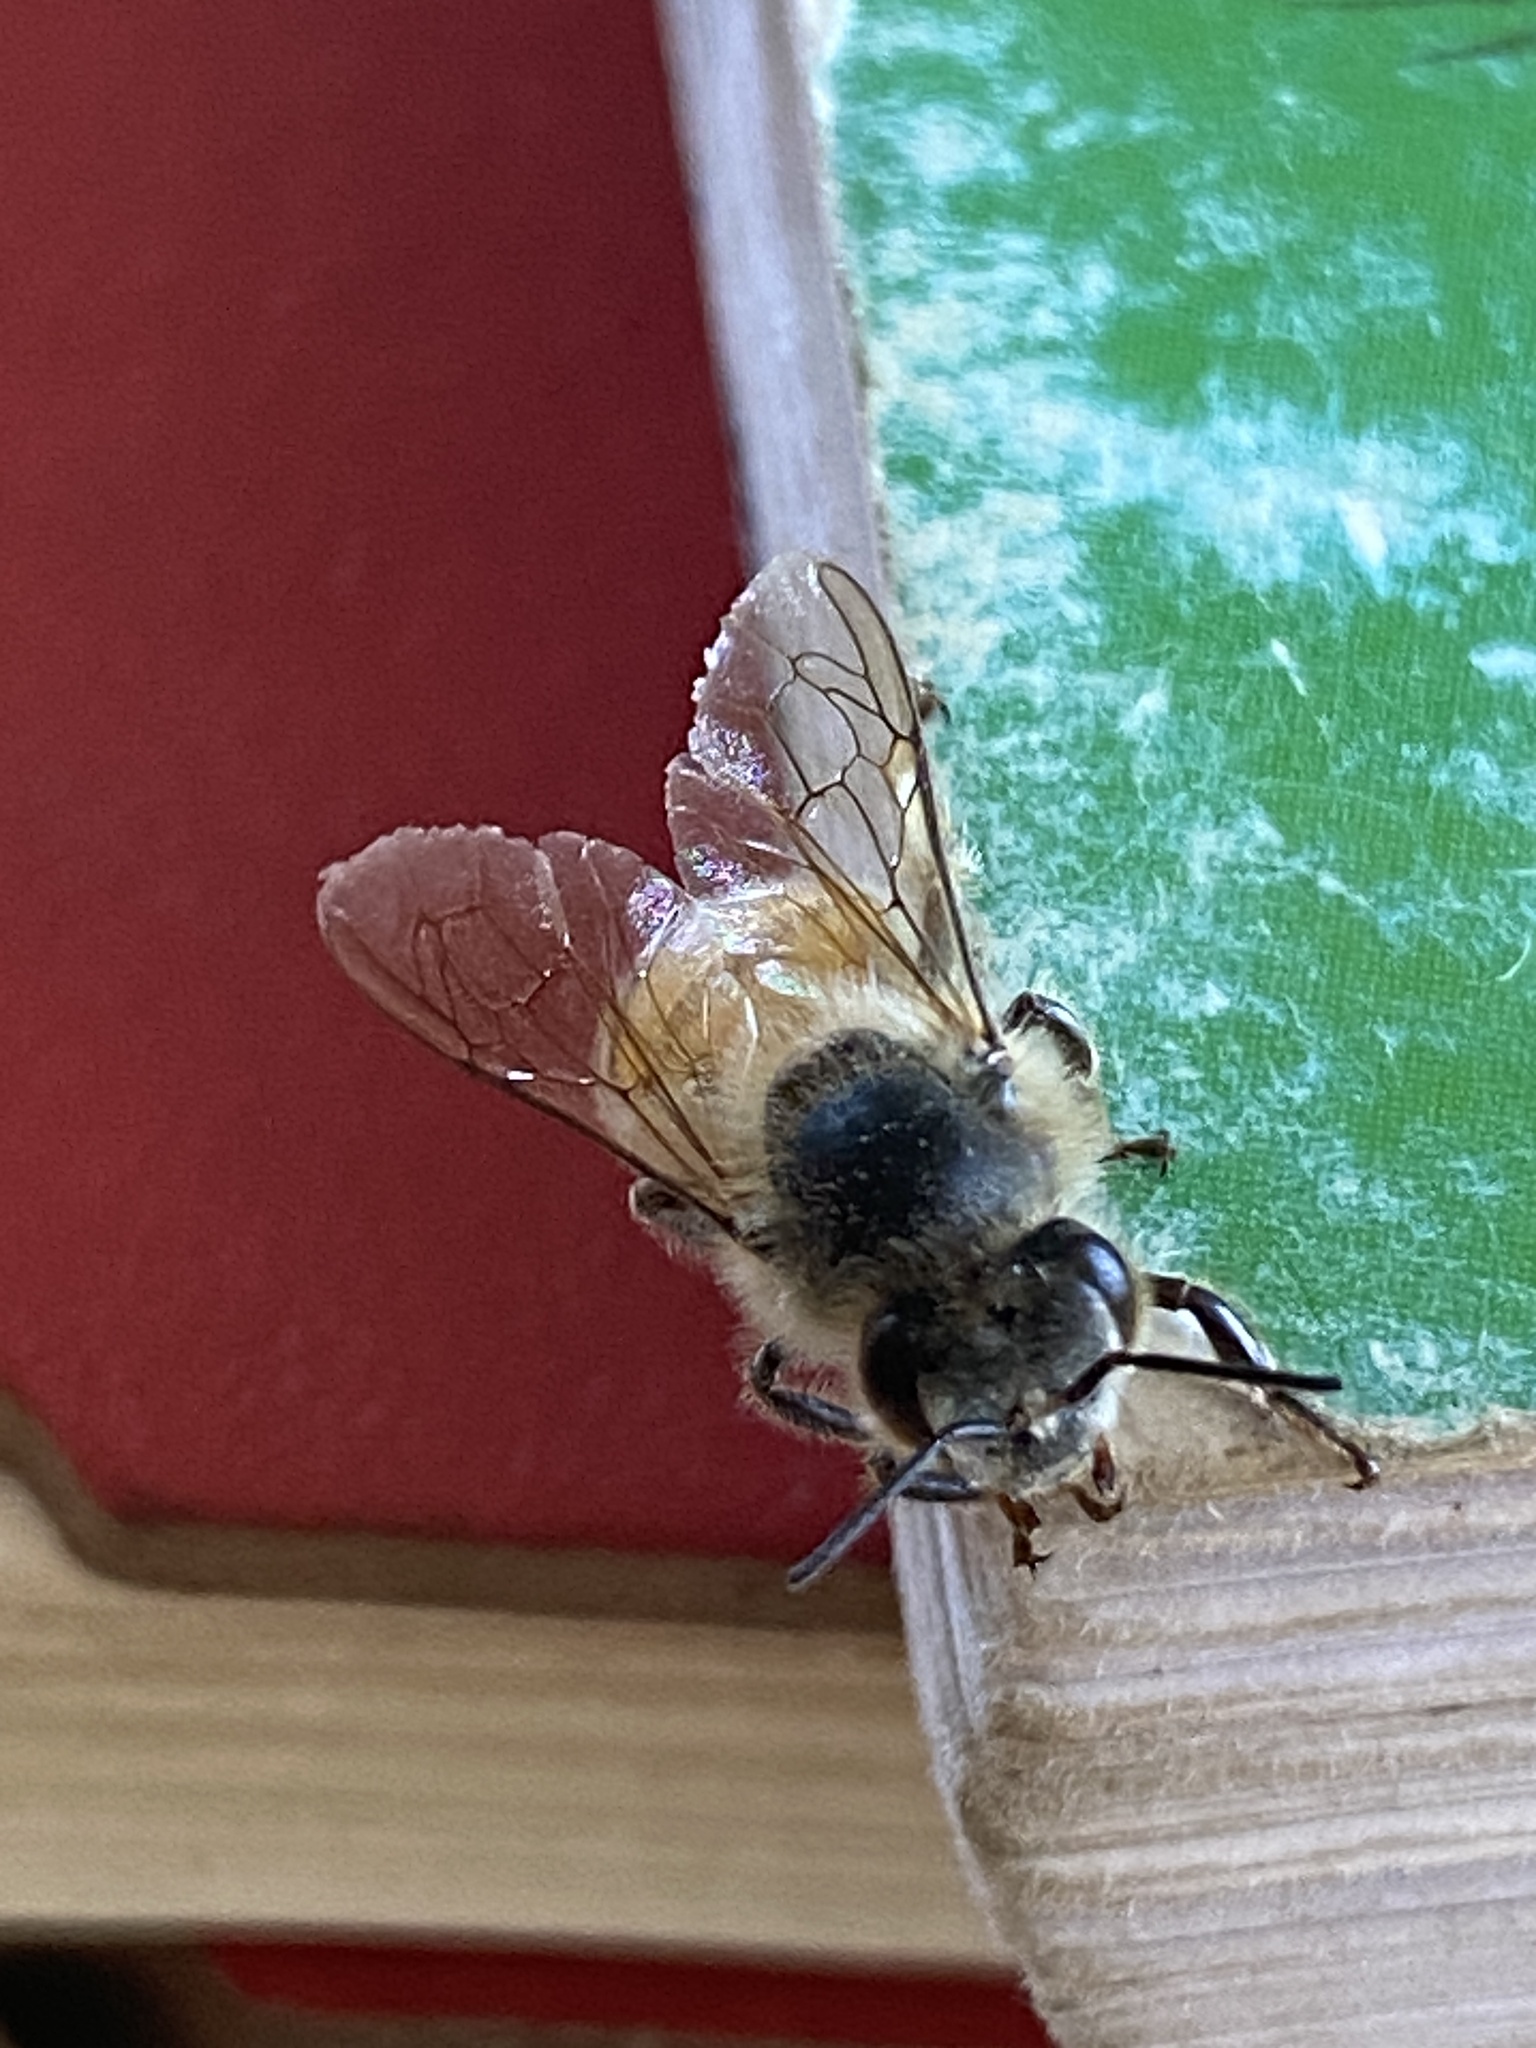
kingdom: Animalia
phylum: Arthropoda
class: Insecta
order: Hymenoptera
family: Apidae
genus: Apis
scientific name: Apis mellifera
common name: Honey bee
